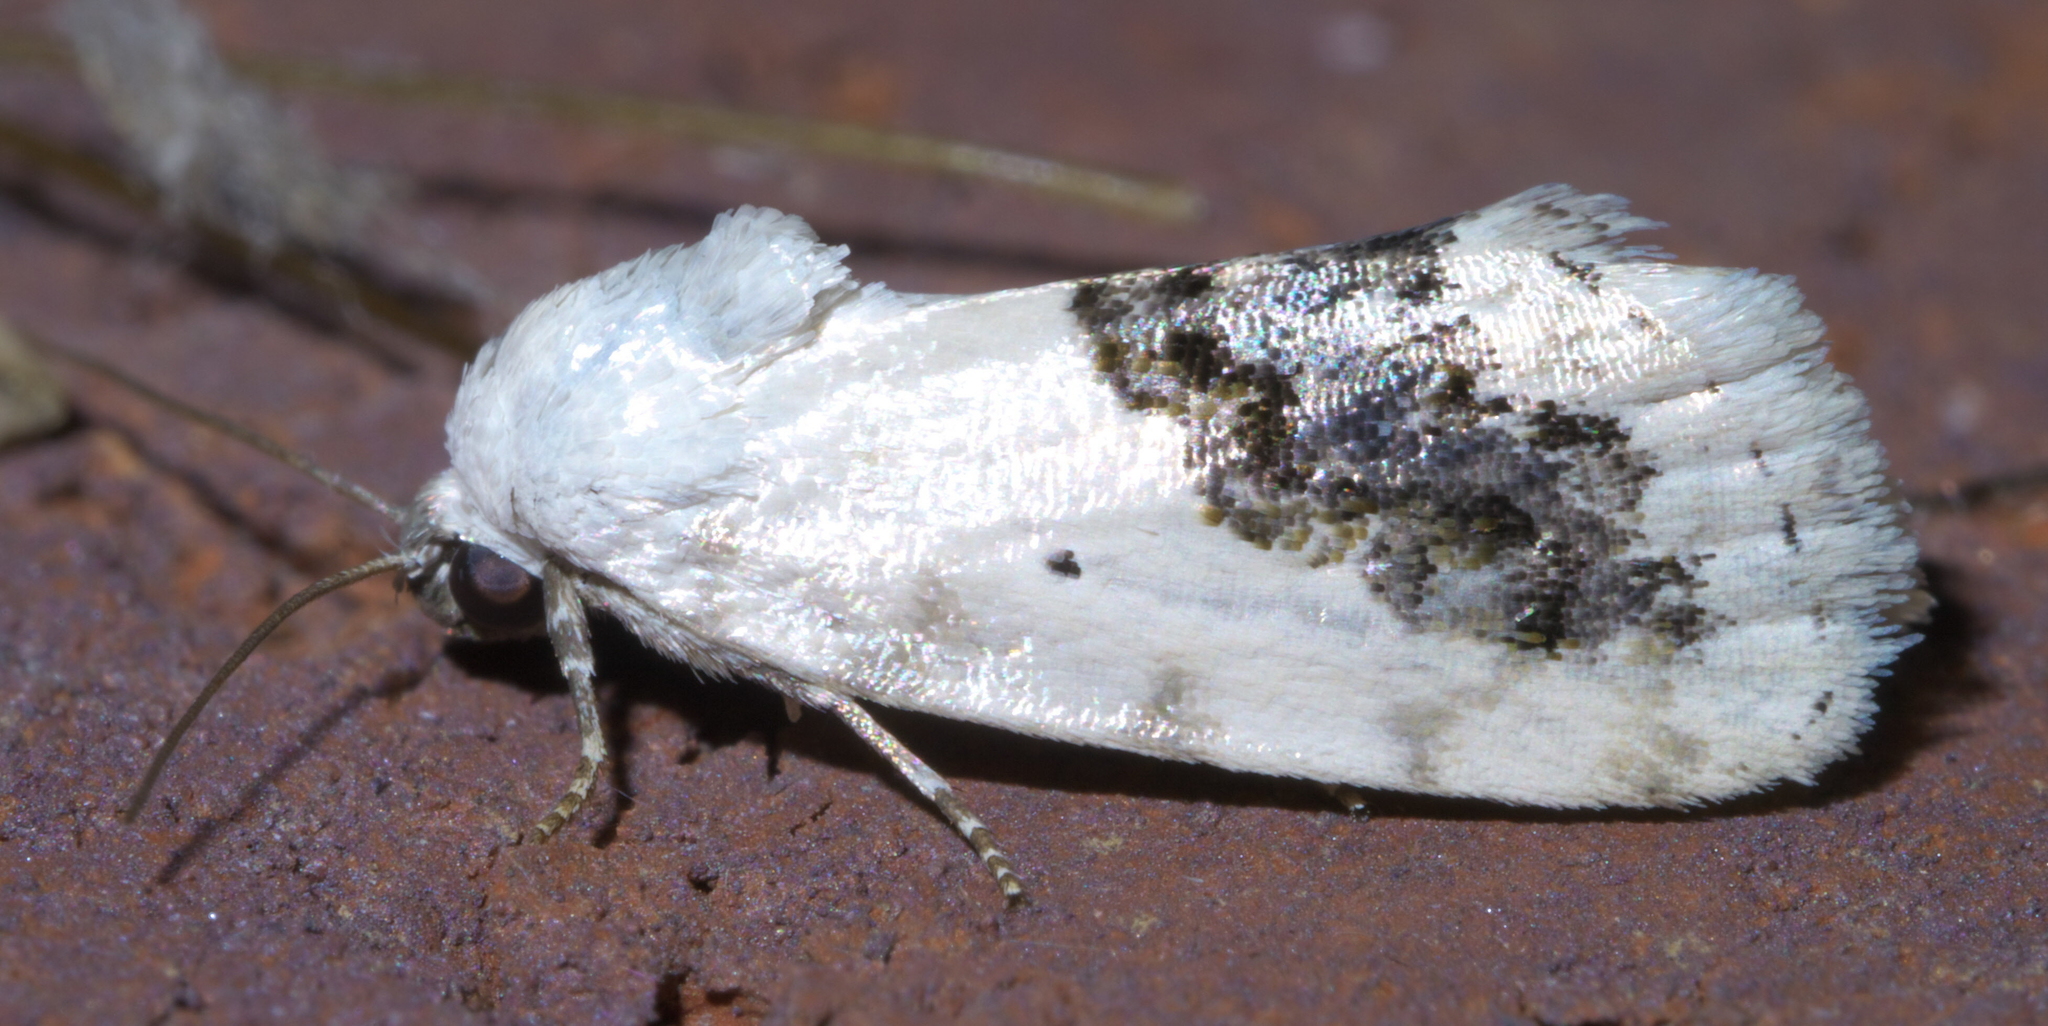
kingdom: Animalia
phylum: Arthropoda
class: Insecta
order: Lepidoptera
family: Noctuidae
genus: Acontia
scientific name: Acontia erastrioides
